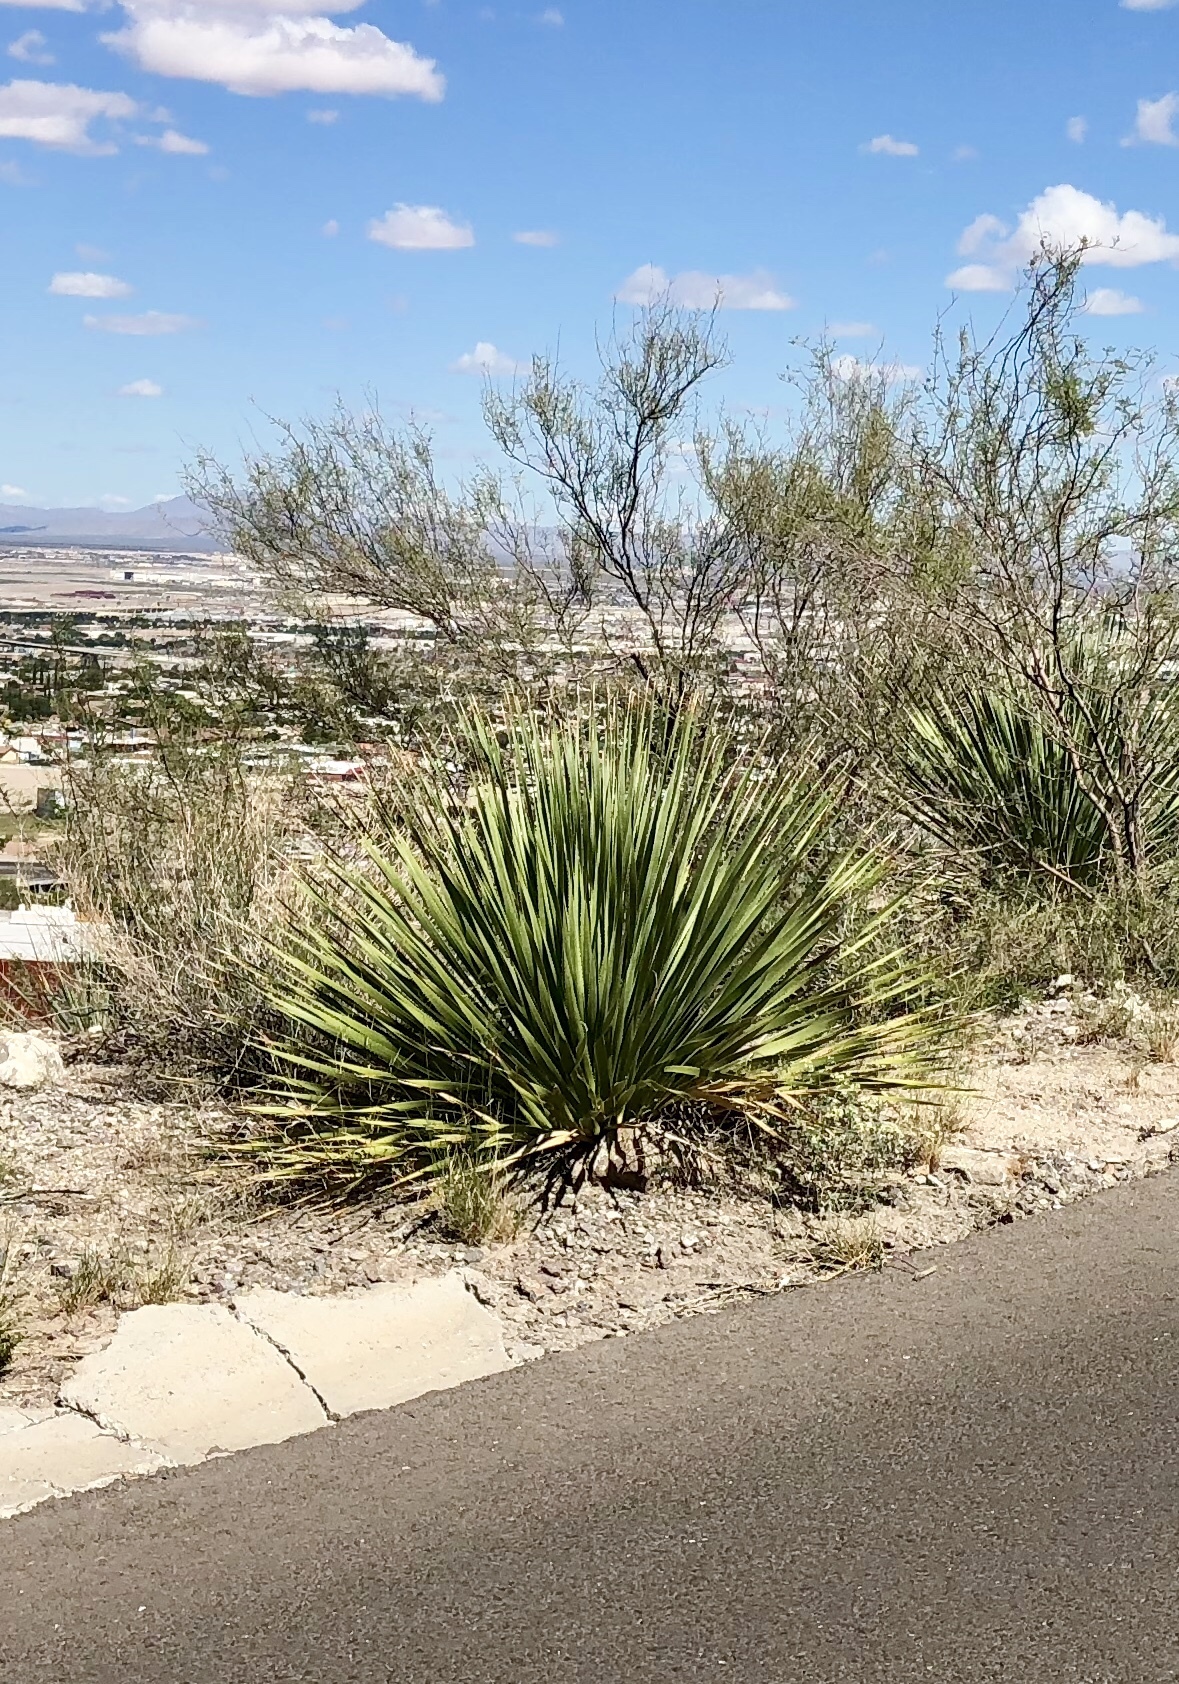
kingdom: Plantae
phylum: Tracheophyta
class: Liliopsida
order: Asparagales
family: Asparagaceae
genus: Dasylirion
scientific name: Dasylirion wheeleri
